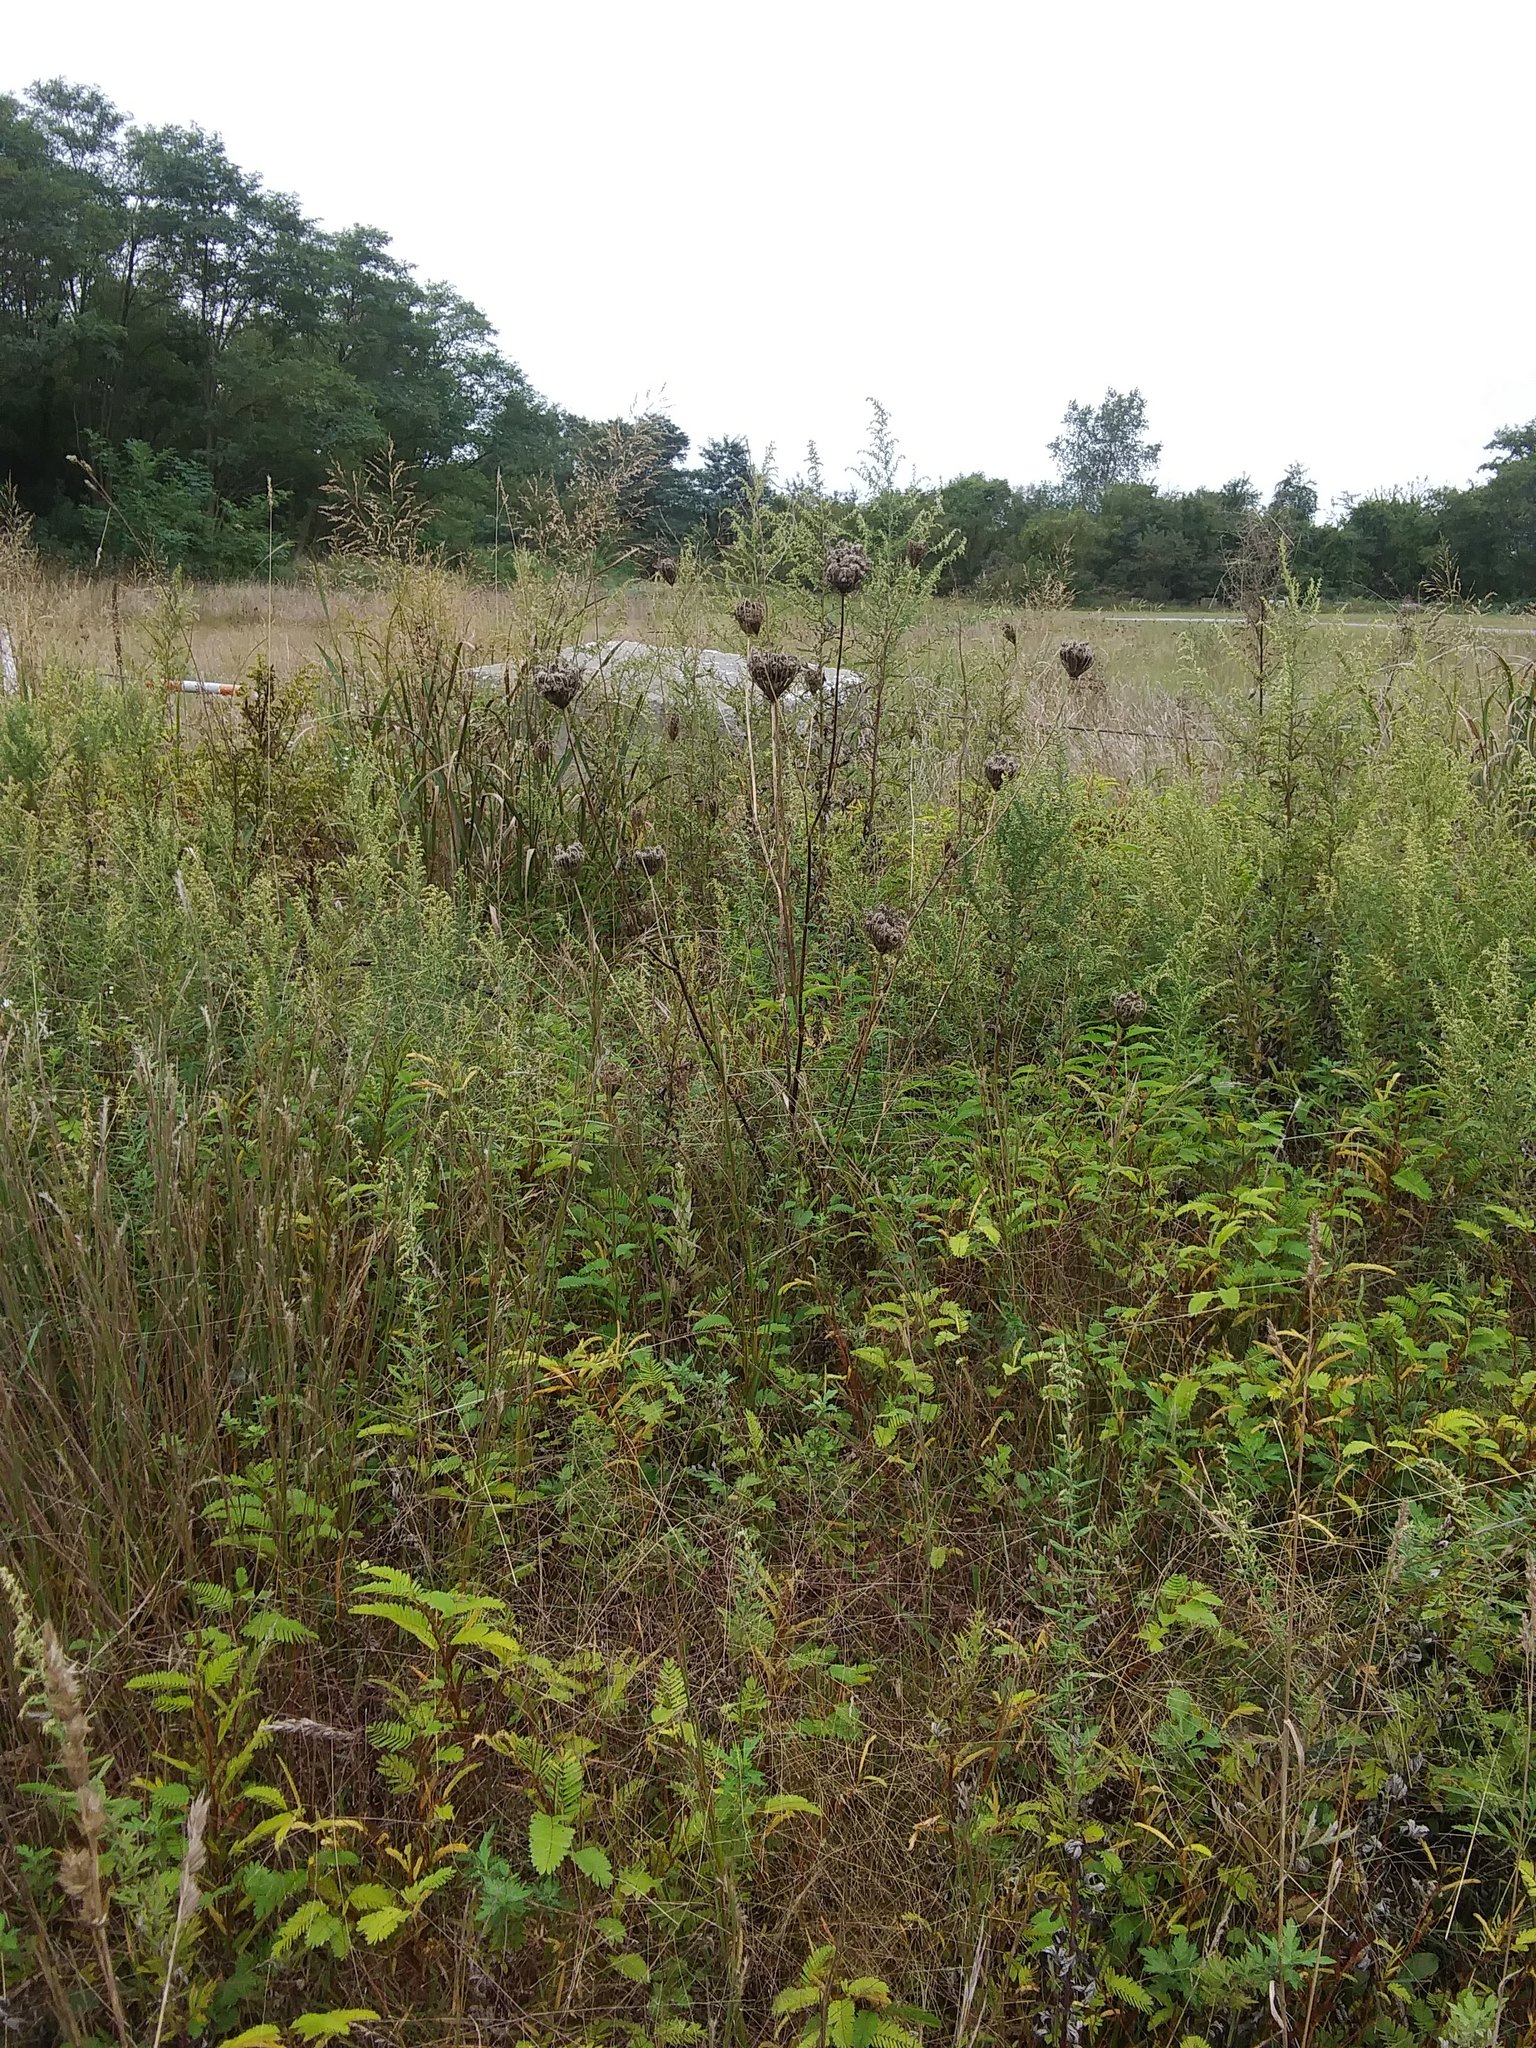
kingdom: Plantae
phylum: Tracheophyta
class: Magnoliopsida
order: Apiales
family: Apiaceae
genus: Daucus
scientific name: Daucus carota
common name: Wild carrot
